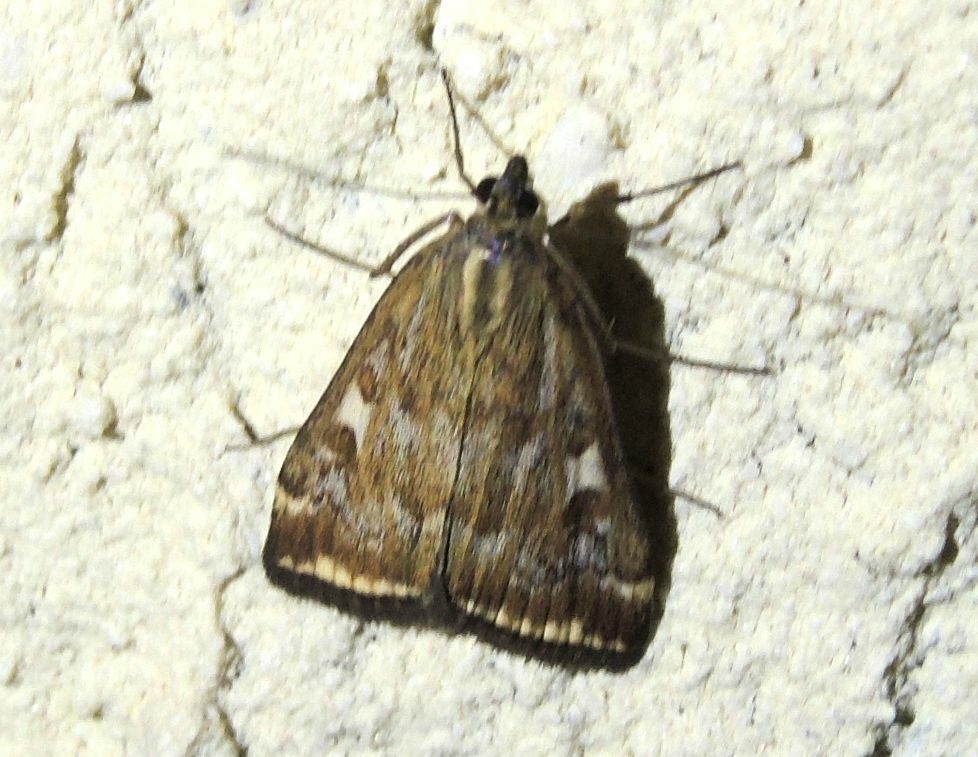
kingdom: Animalia
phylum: Arthropoda
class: Insecta
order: Lepidoptera
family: Crambidae
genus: Loxostege
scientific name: Loxostege sticticalis
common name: Crambid moth
